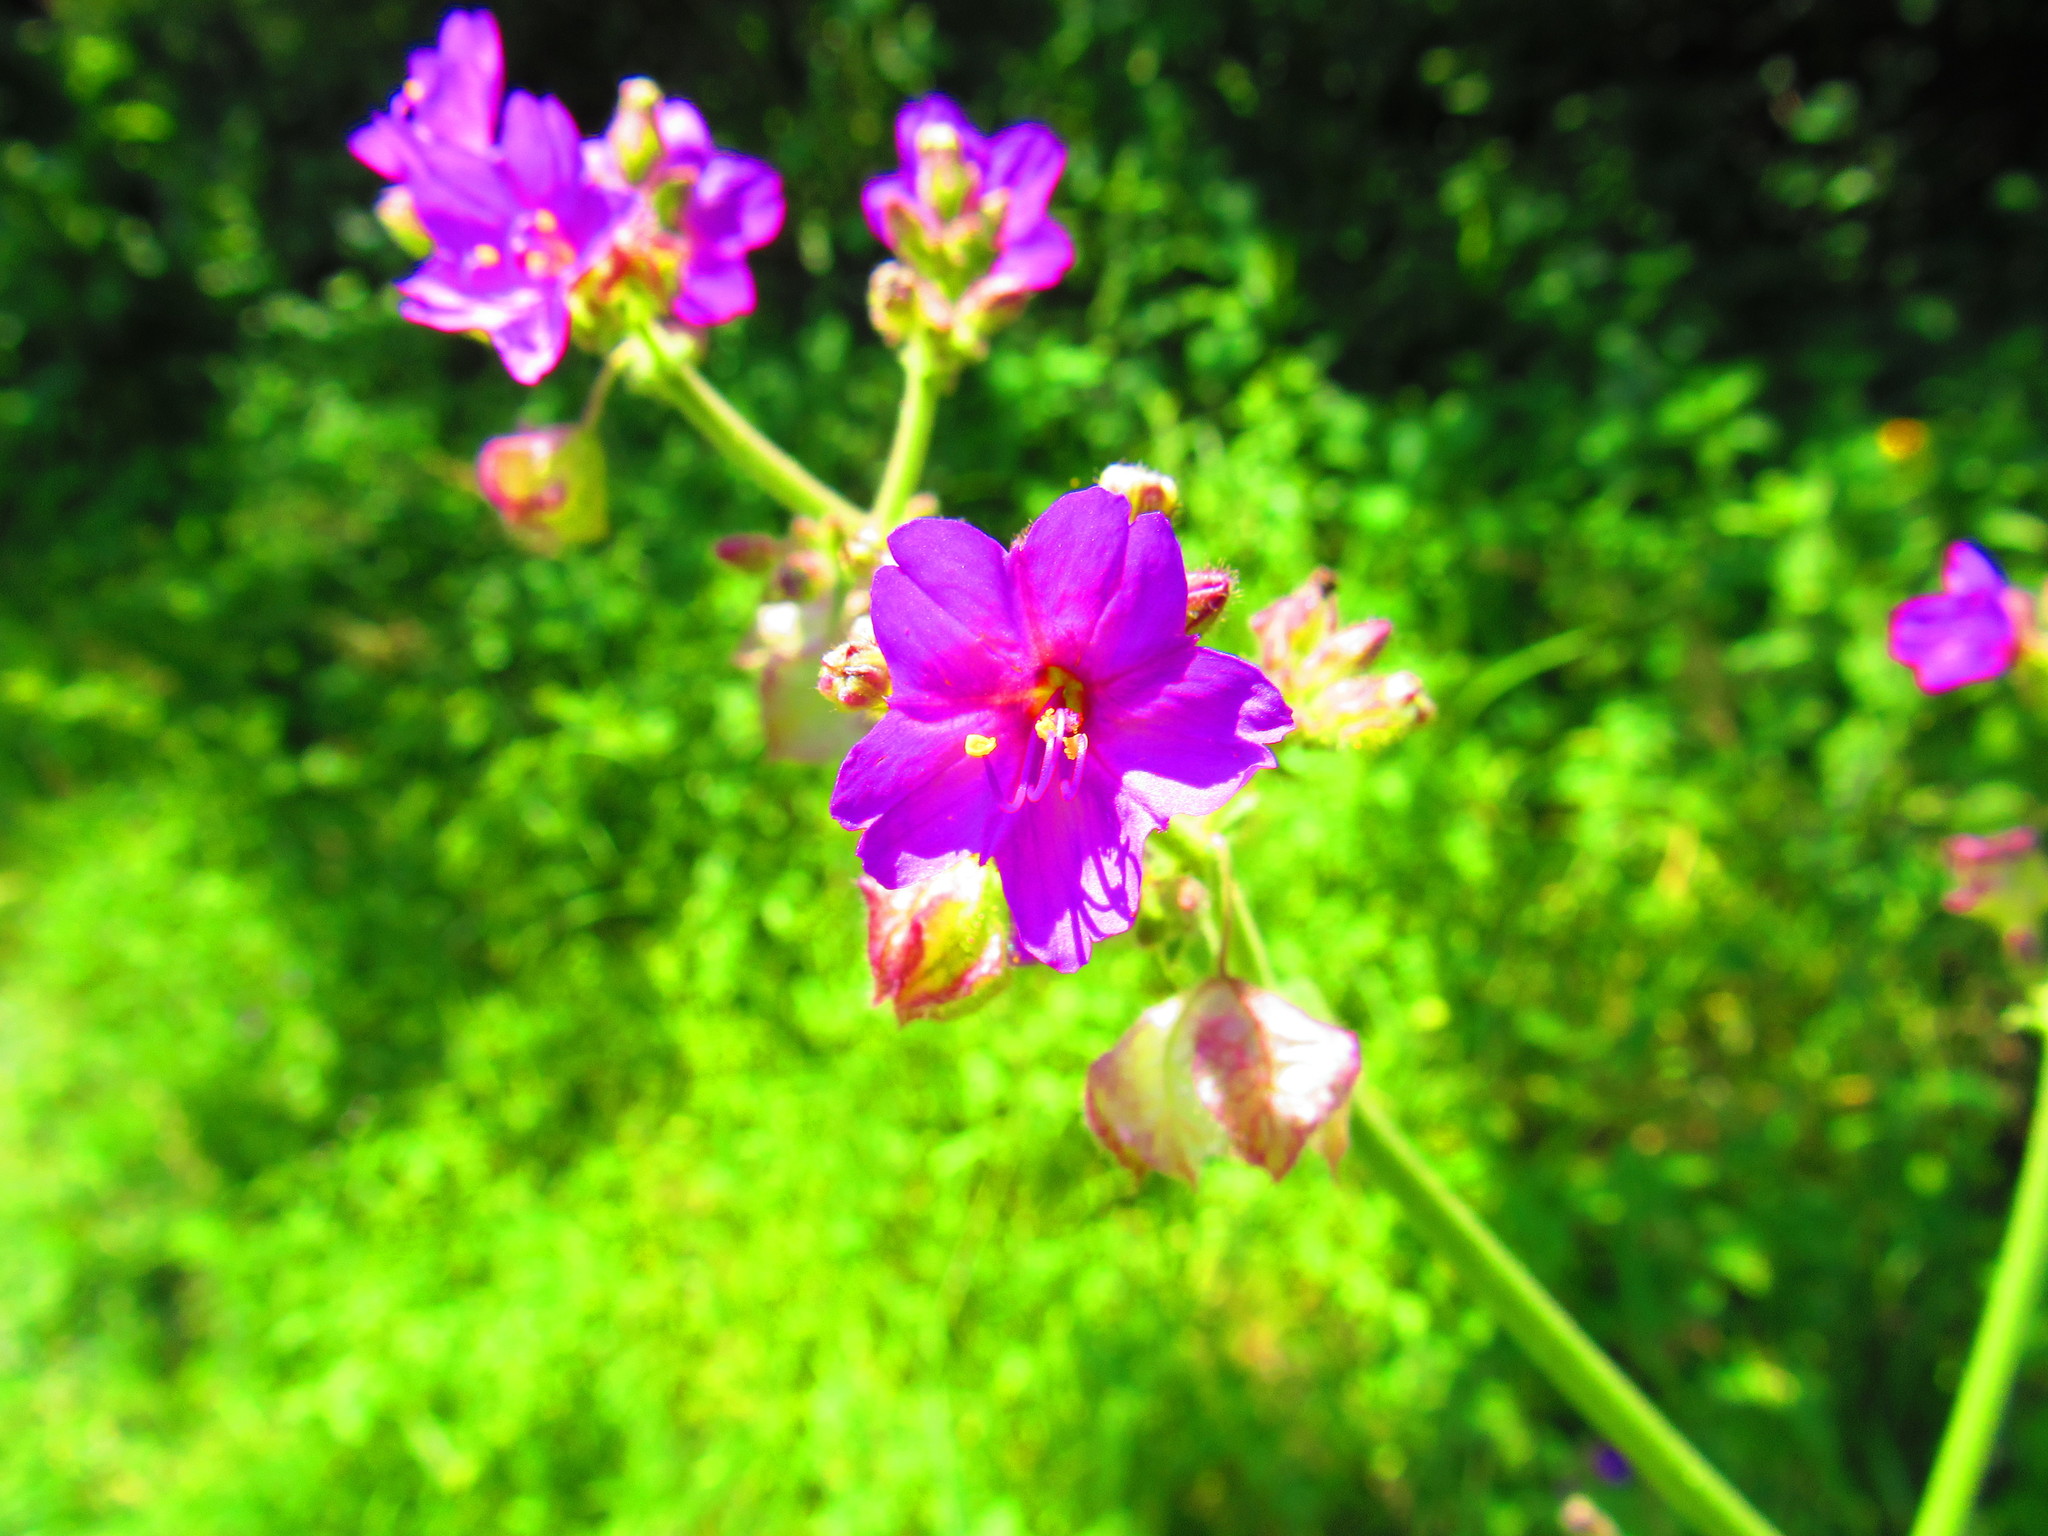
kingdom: Plantae
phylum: Tracheophyta
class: Magnoliopsida
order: Caryophyllales
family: Nyctaginaceae
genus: Mirabilis
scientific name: Mirabilis viscosa
